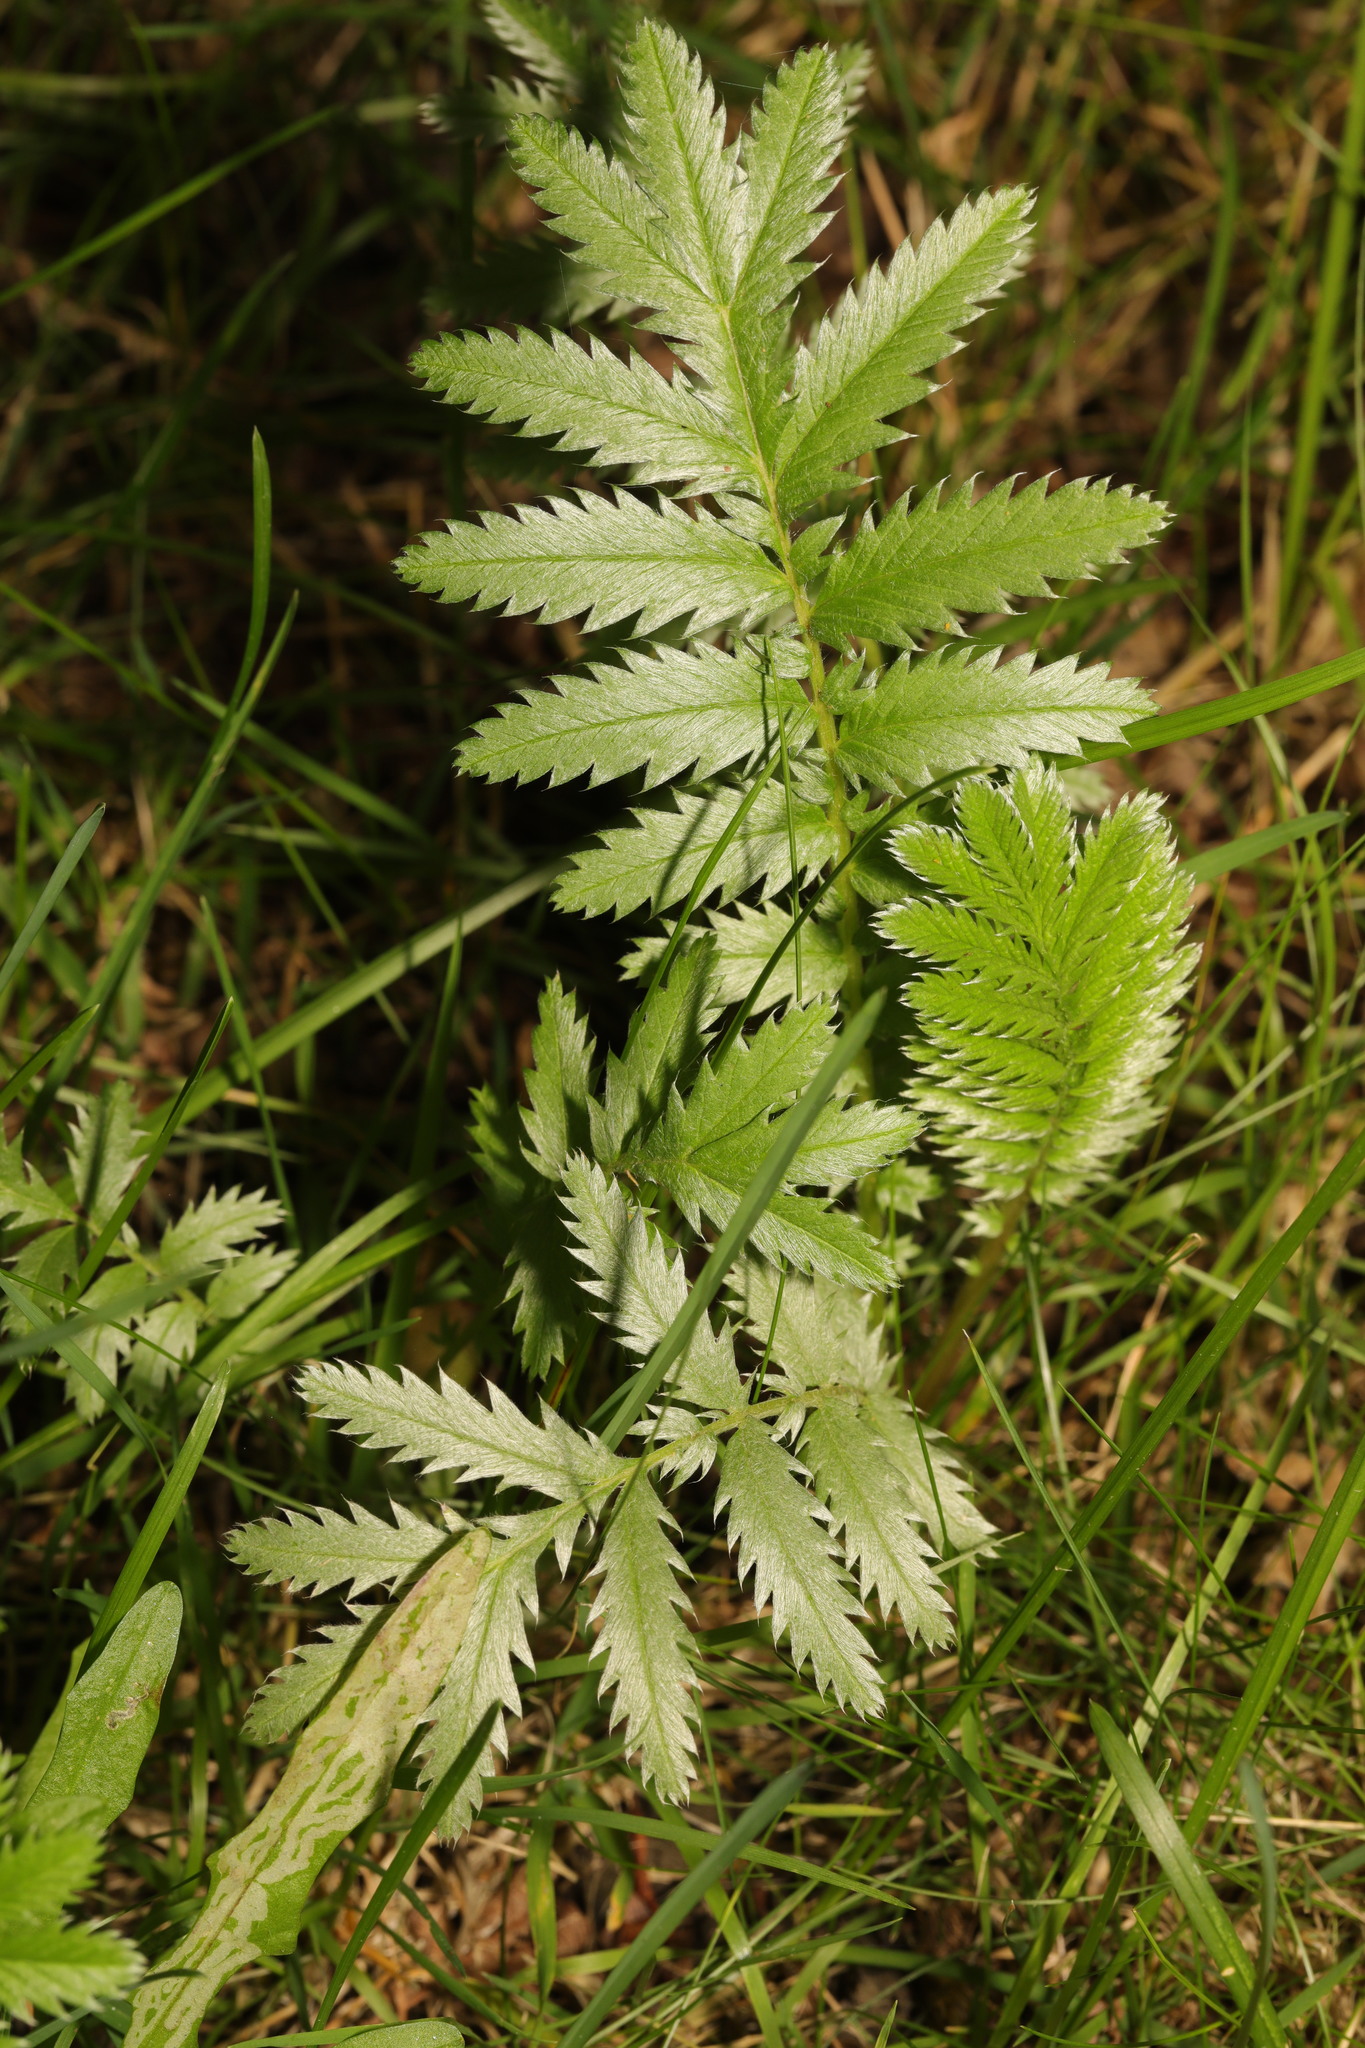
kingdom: Plantae
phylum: Tracheophyta
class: Magnoliopsida
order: Rosales
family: Rosaceae
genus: Argentina
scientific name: Argentina anserina
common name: Common silverweed
